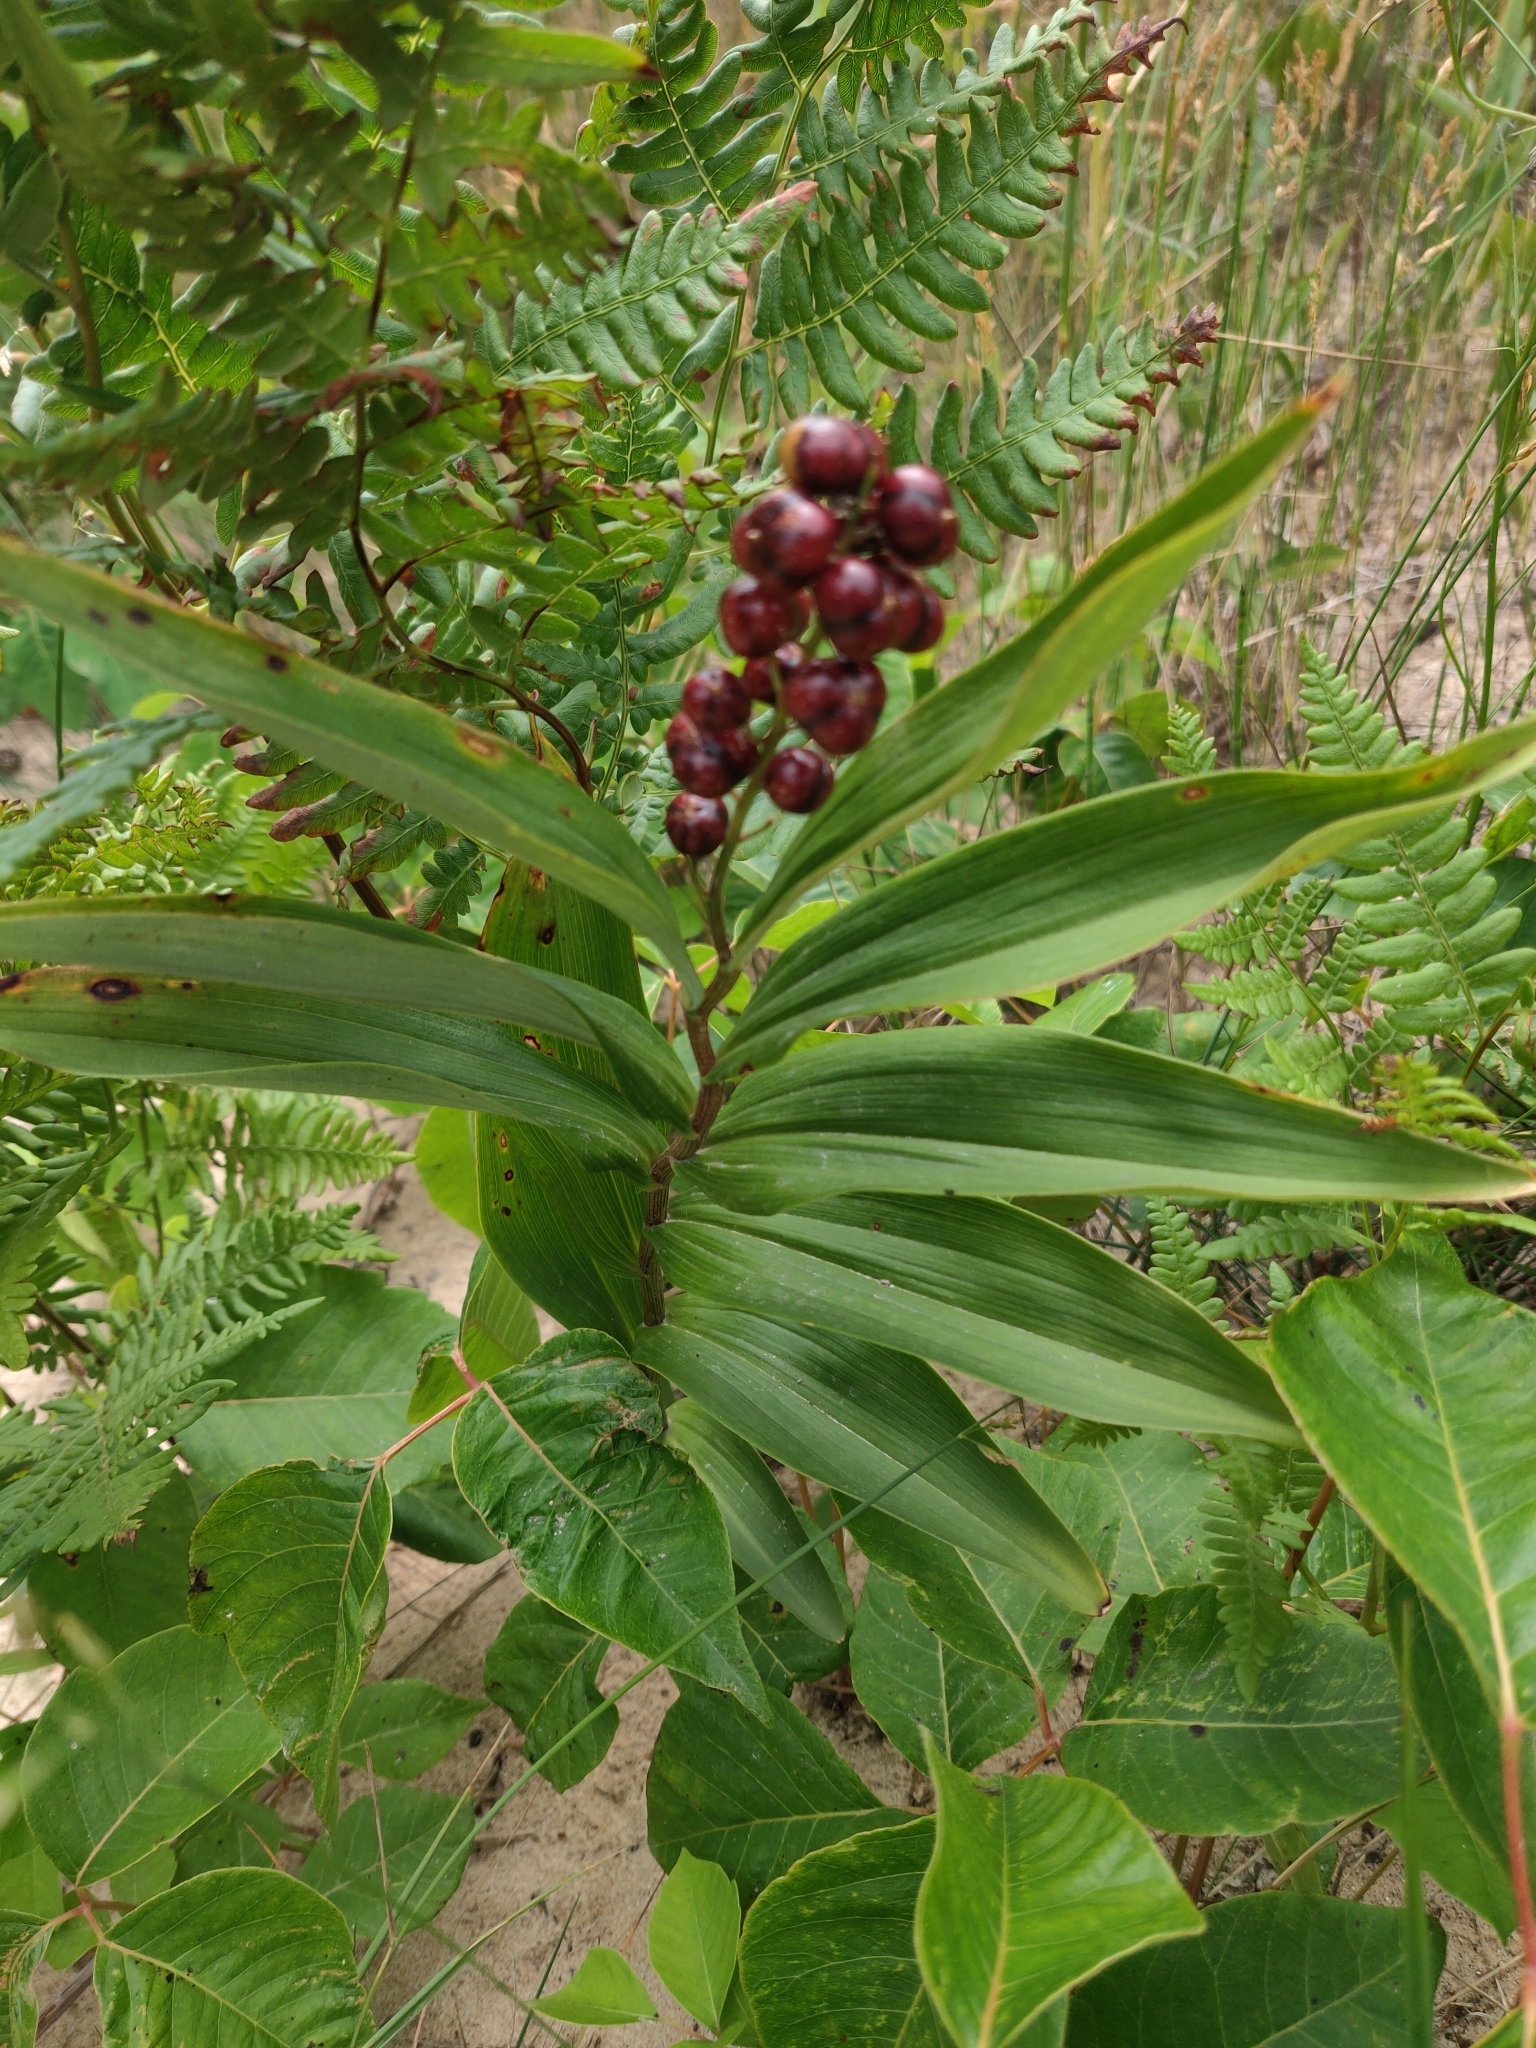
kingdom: Plantae
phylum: Tracheophyta
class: Liliopsida
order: Asparagales
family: Asparagaceae
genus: Maianthemum
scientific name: Maianthemum stellatum
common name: Little false solomon's seal
